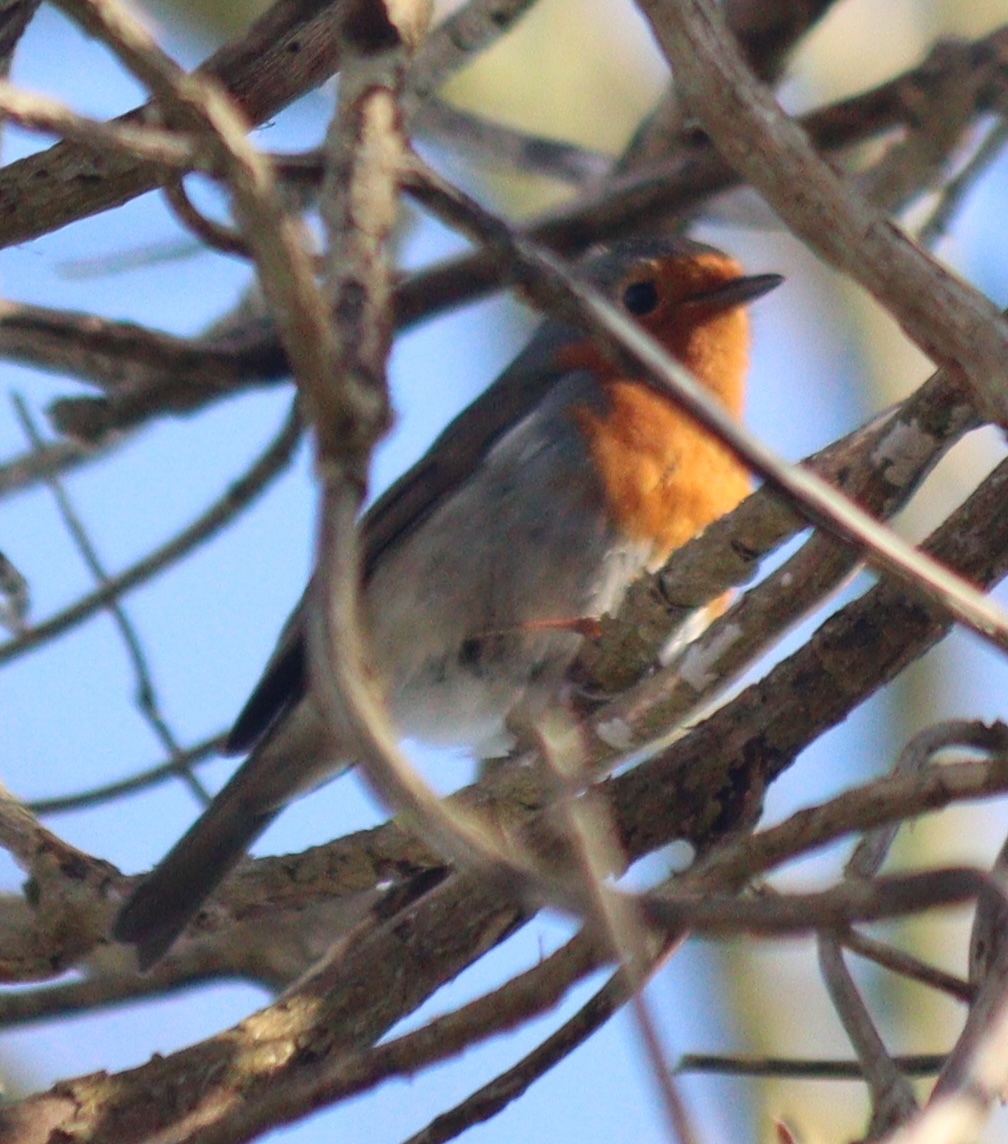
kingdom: Animalia
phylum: Chordata
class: Aves
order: Passeriformes
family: Muscicapidae
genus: Erithacus
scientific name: Erithacus rubecula
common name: European robin
